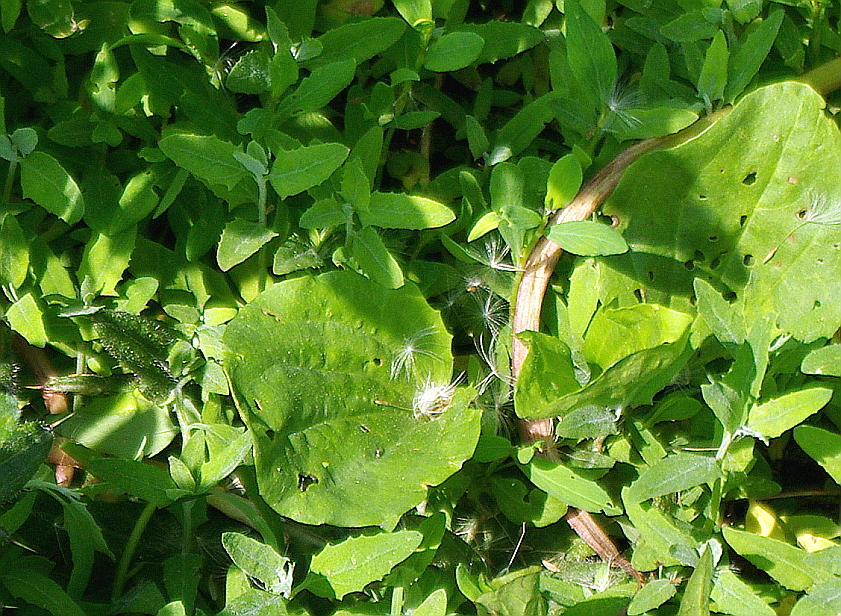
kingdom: Plantae
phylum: Tracheophyta
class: Magnoliopsida
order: Lamiales
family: Plantaginaceae
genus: Plantago
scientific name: Plantago major
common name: Common plantain
